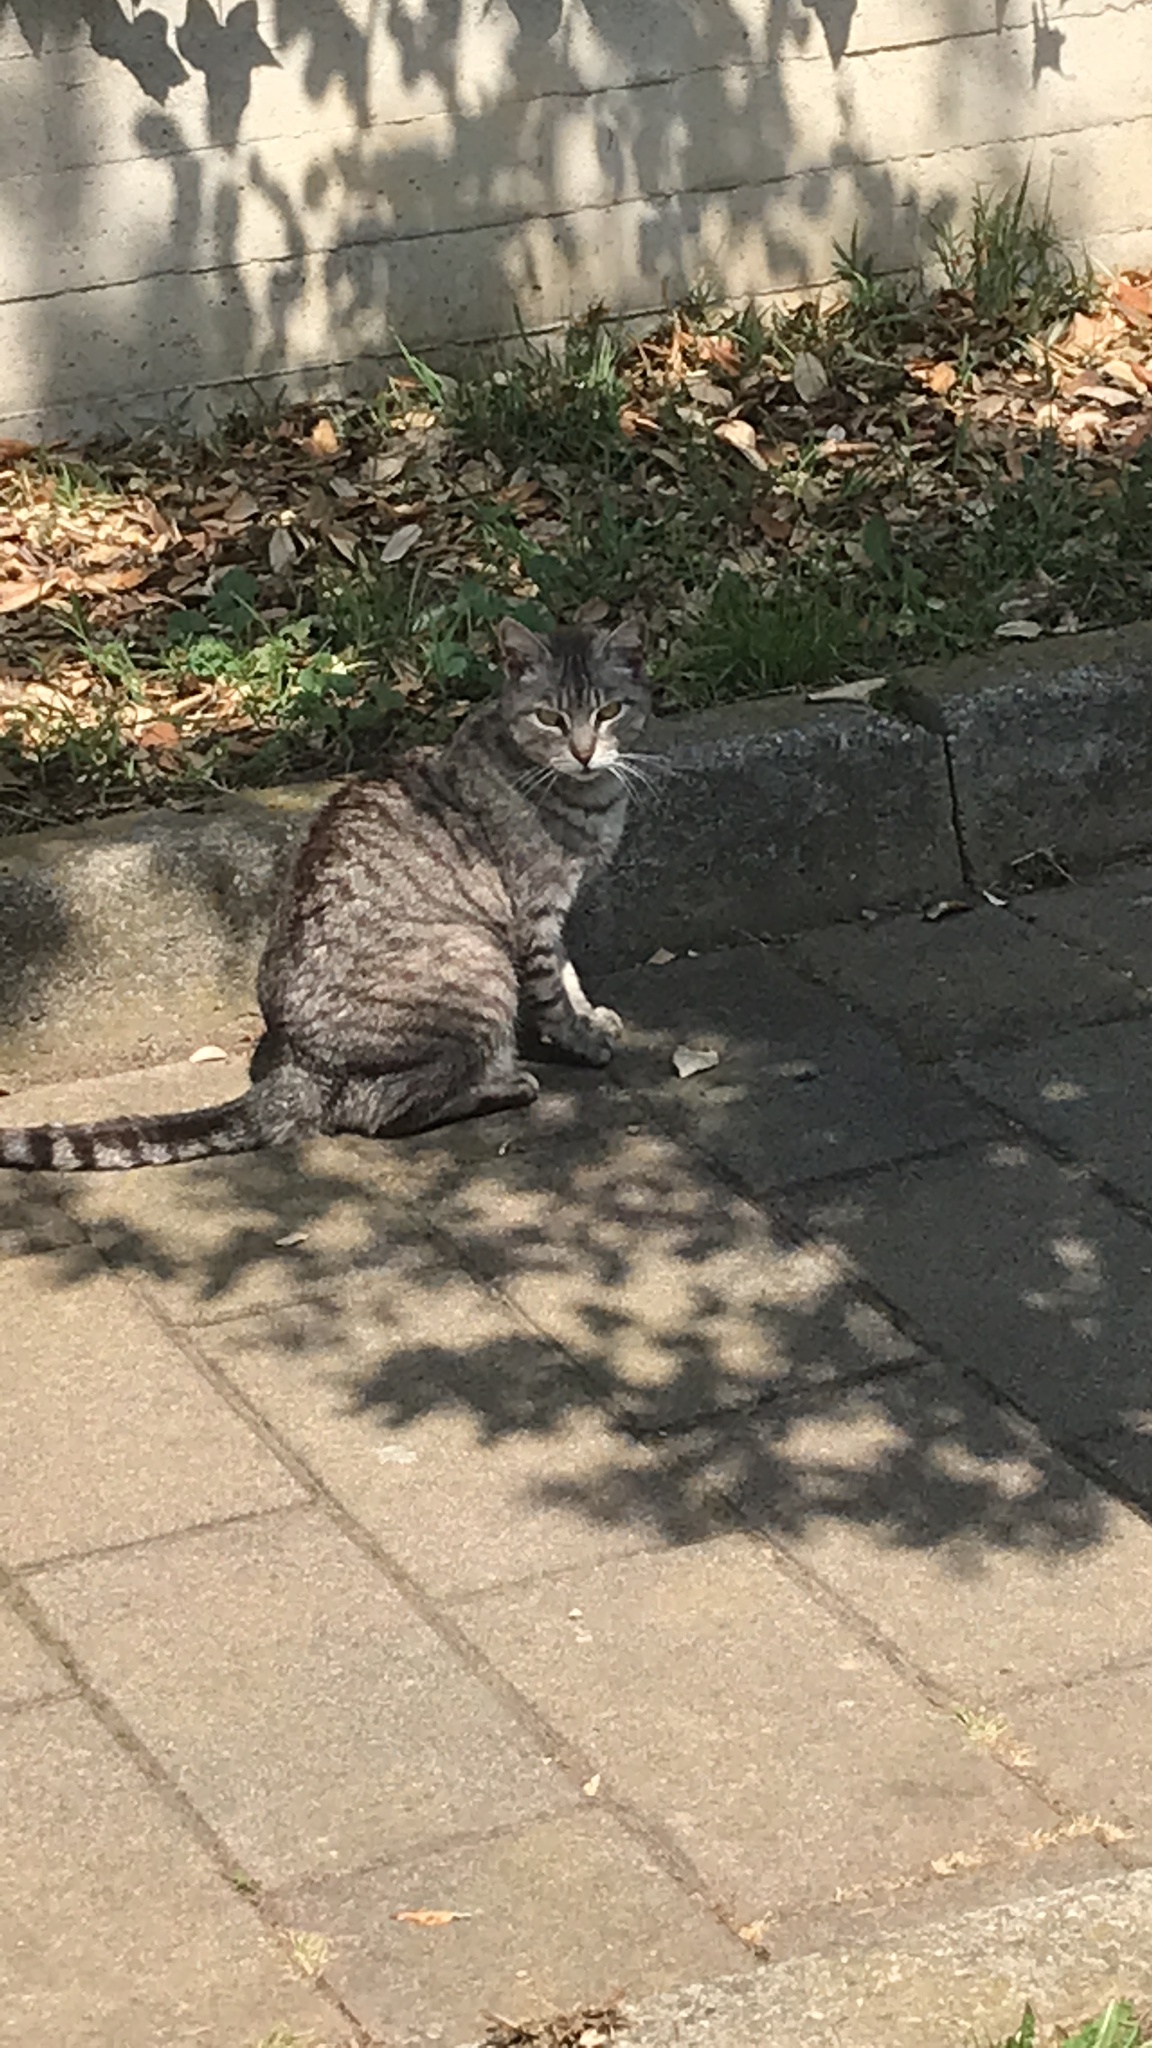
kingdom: Animalia
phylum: Chordata
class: Mammalia
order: Carnivora
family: Felidae
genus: Felis
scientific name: Felis catus
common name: Domestic cat
